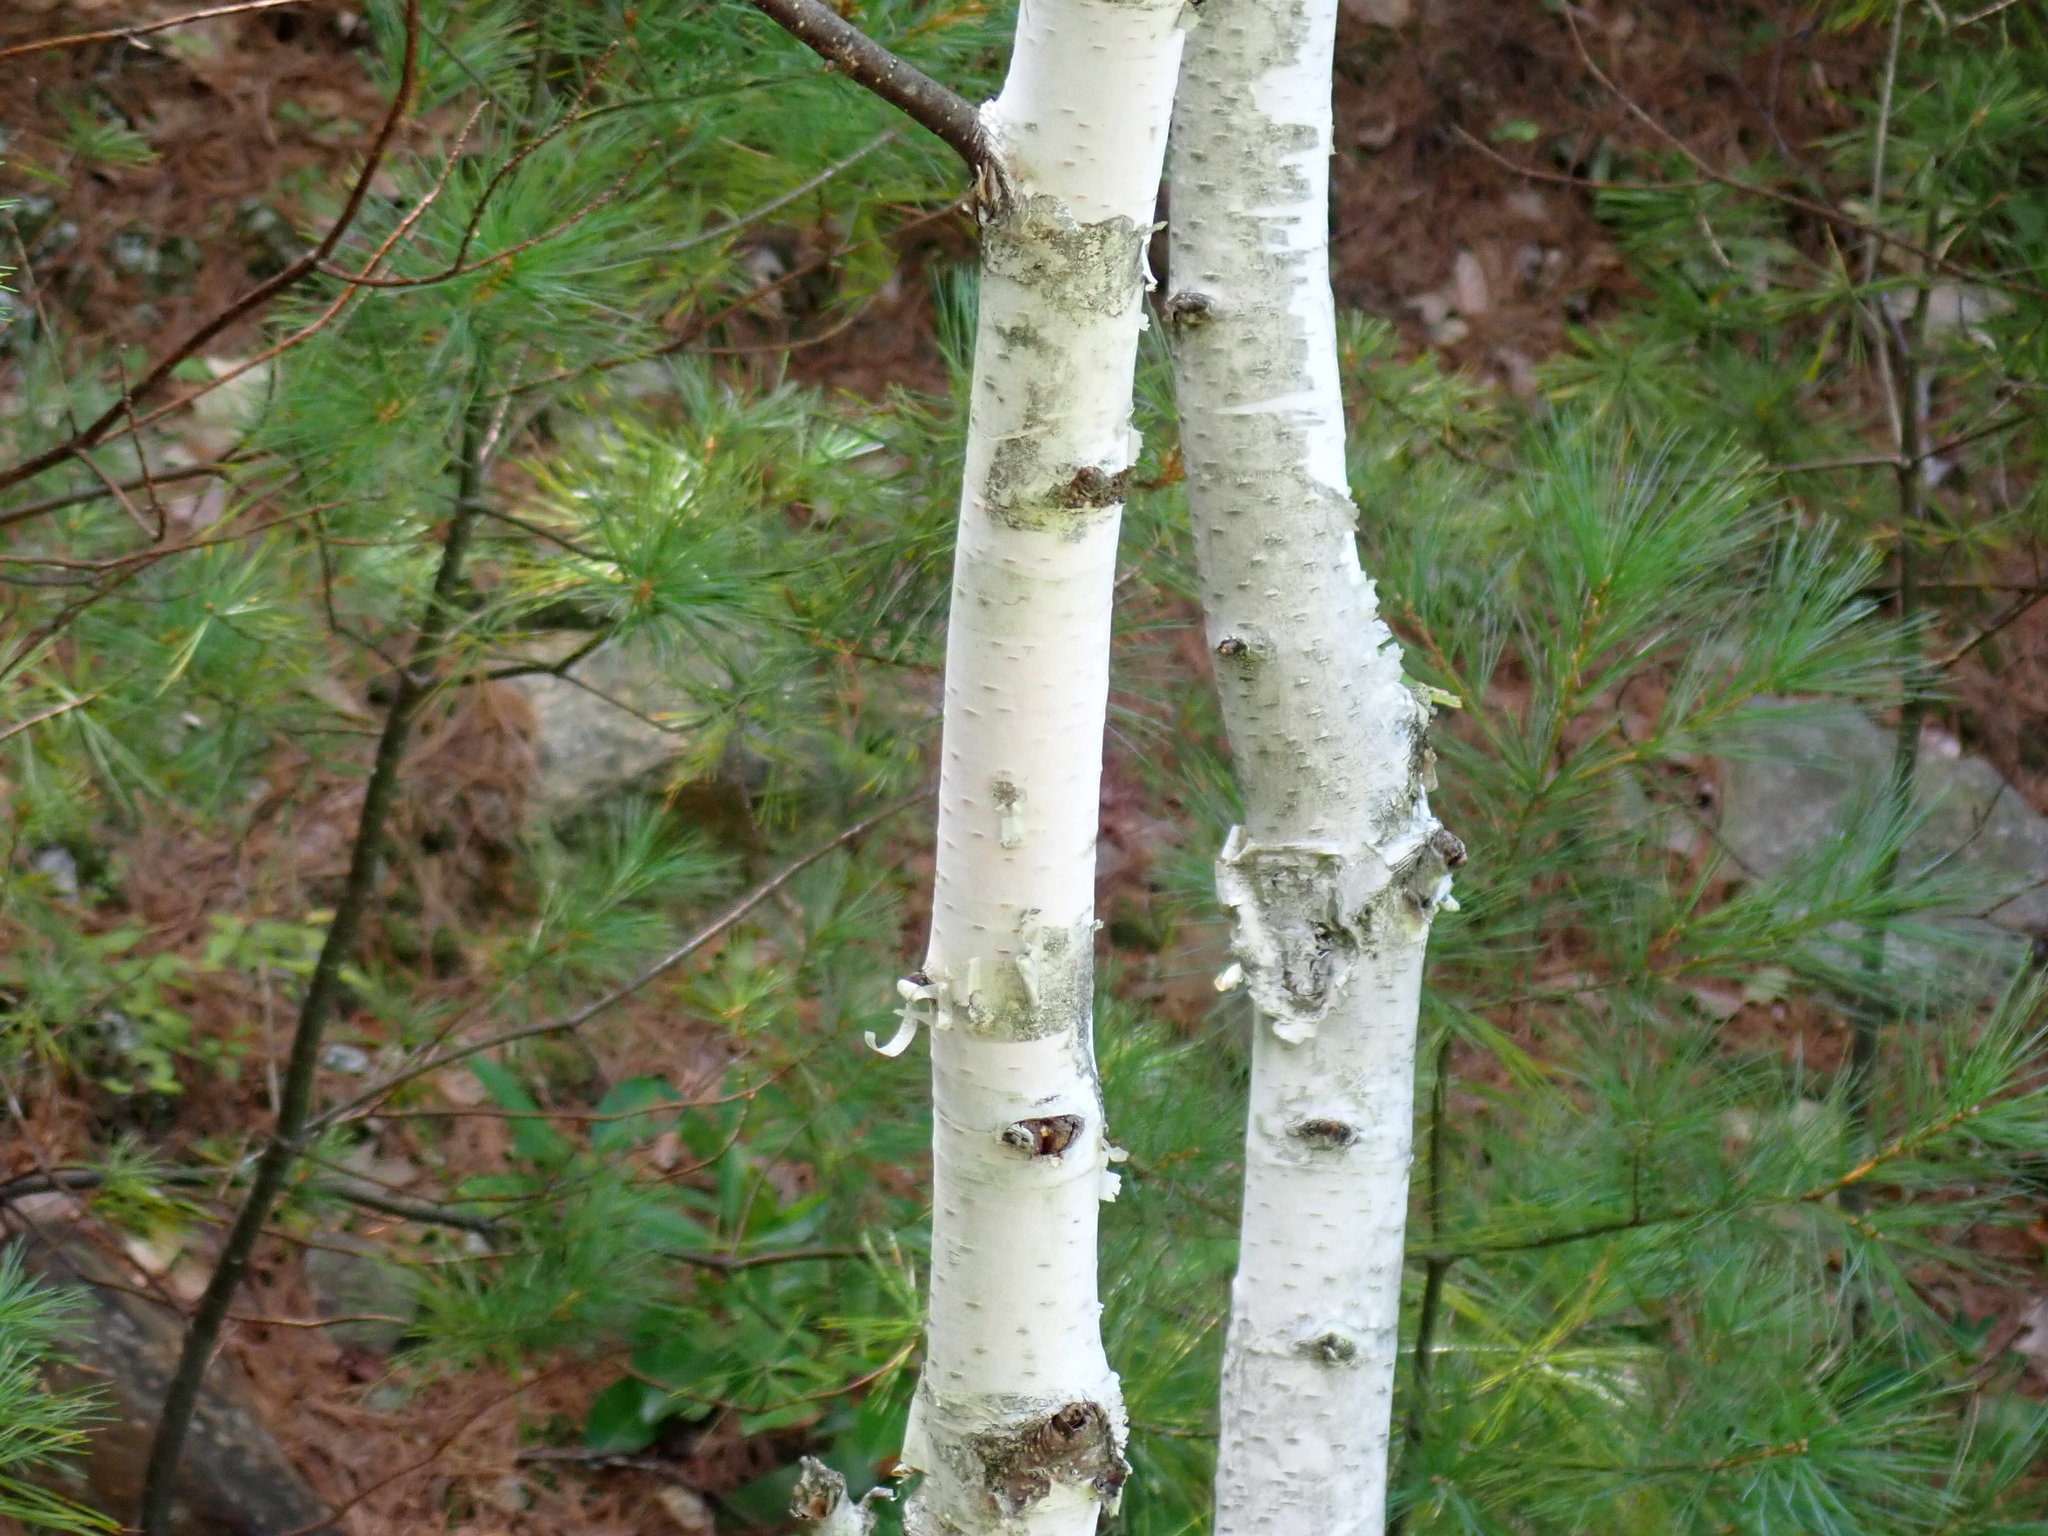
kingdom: Plantae
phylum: Tracheophyta
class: Magnoliopsida
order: Fagales
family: Betulaceae
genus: Betula
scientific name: Betula papyrifera
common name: Paper birch
